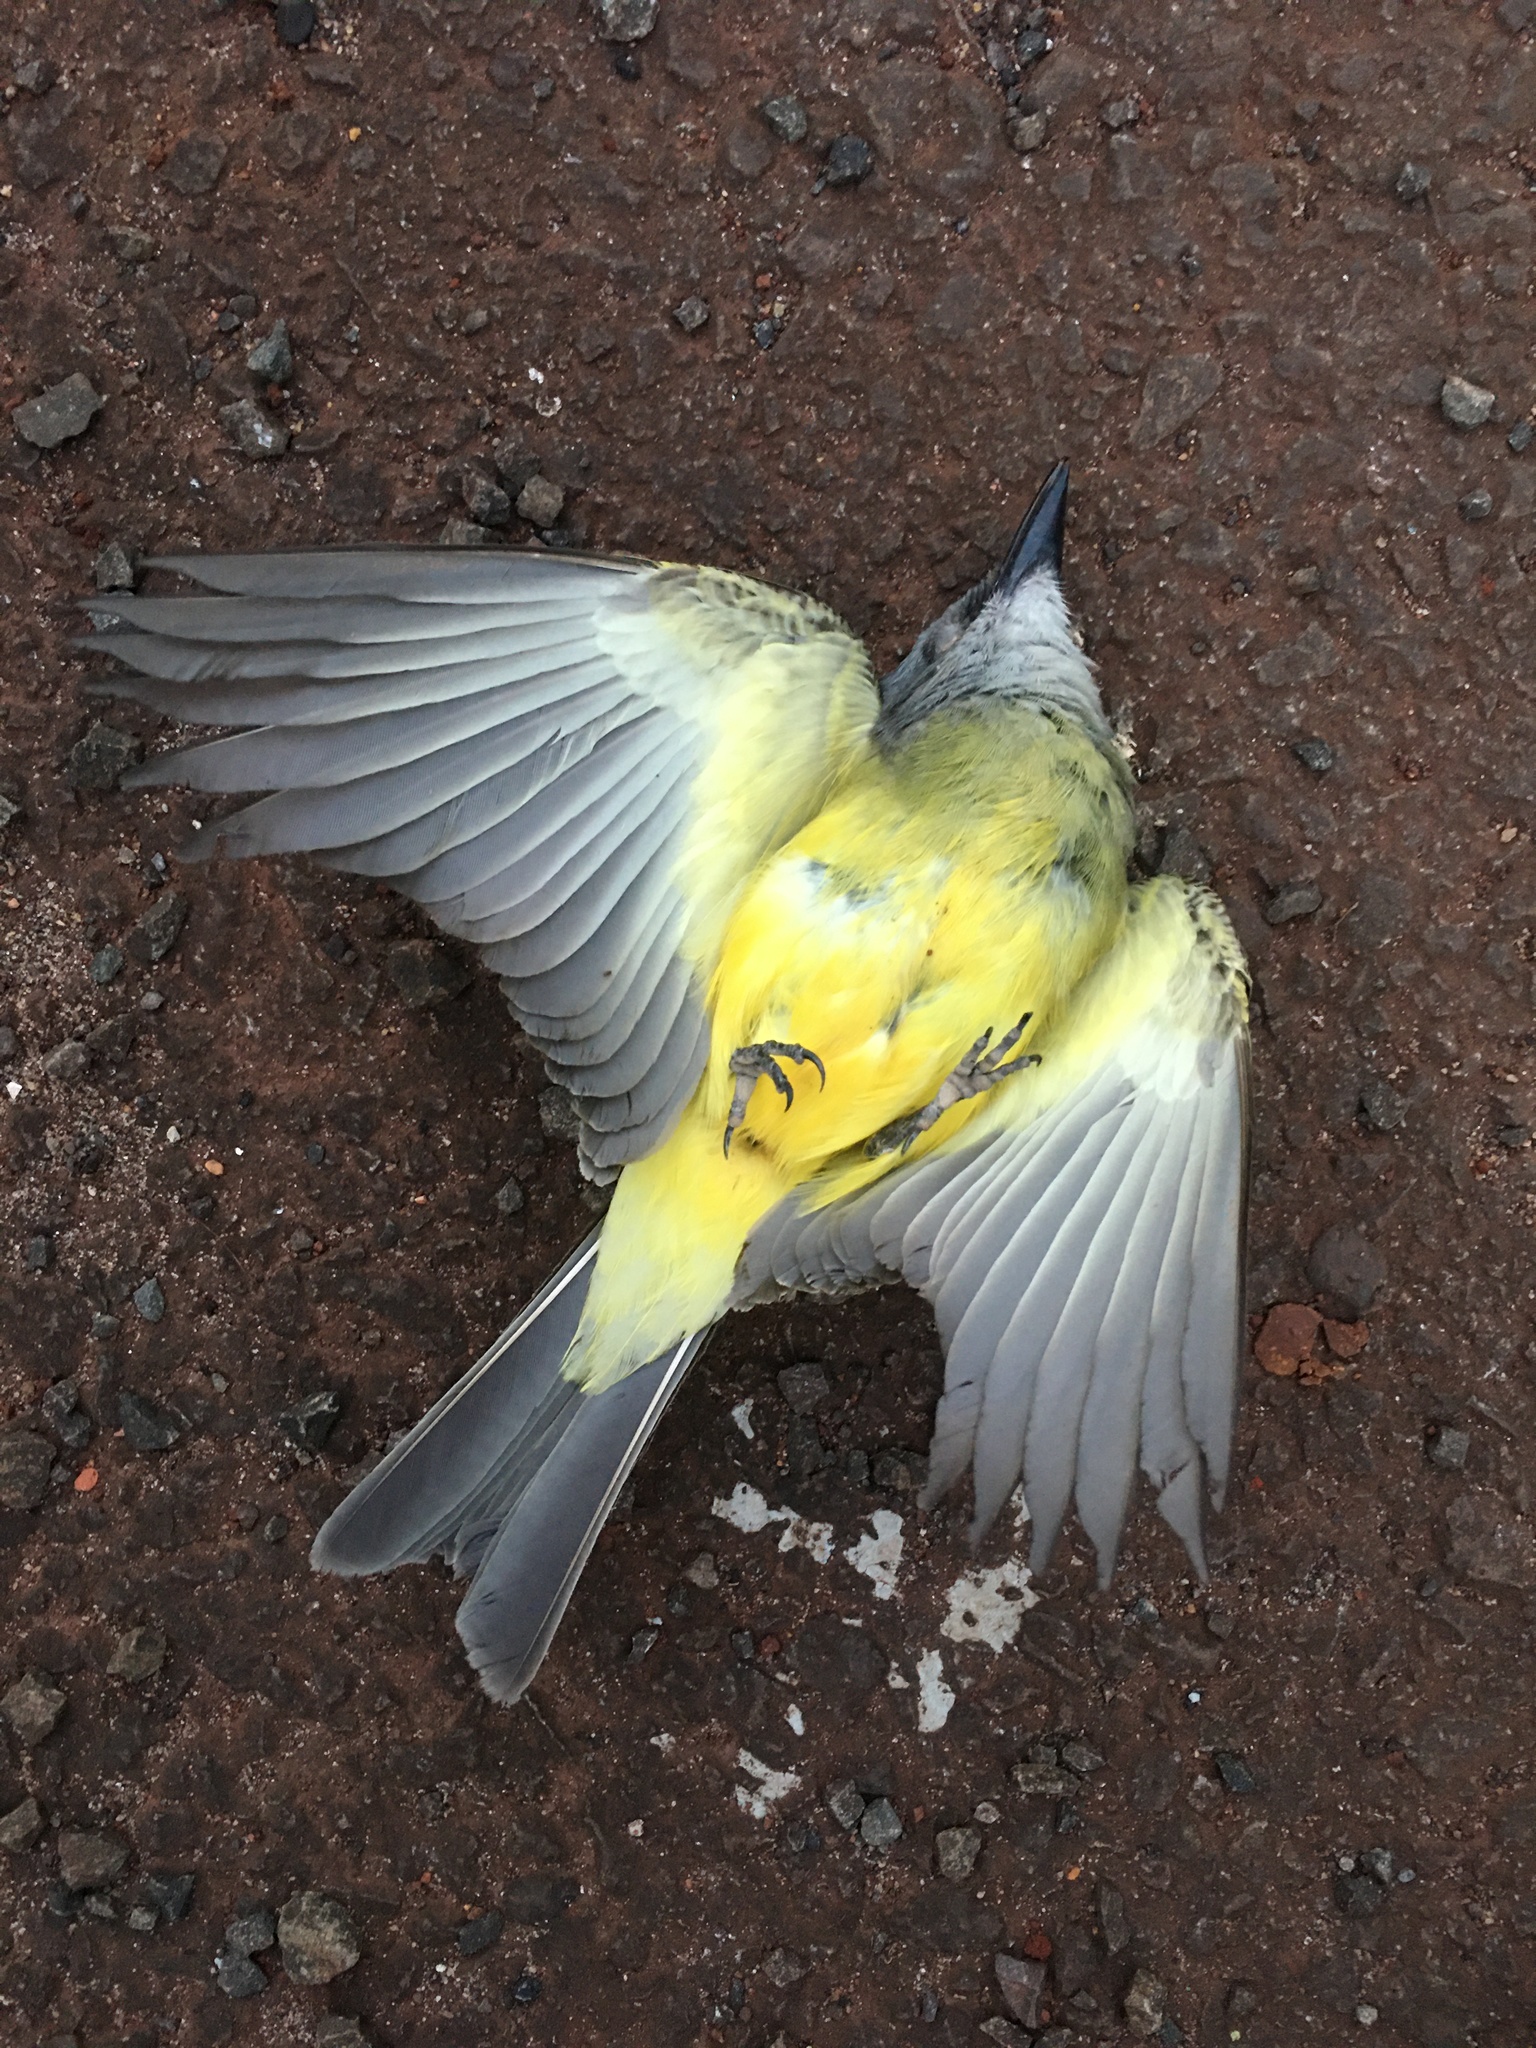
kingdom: Animalia
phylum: Chordata
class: Aves
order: Passeriformes
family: Tyrannidae
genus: Tyrannus
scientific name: Tyrannus melancholicus
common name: Tropical kingbird
